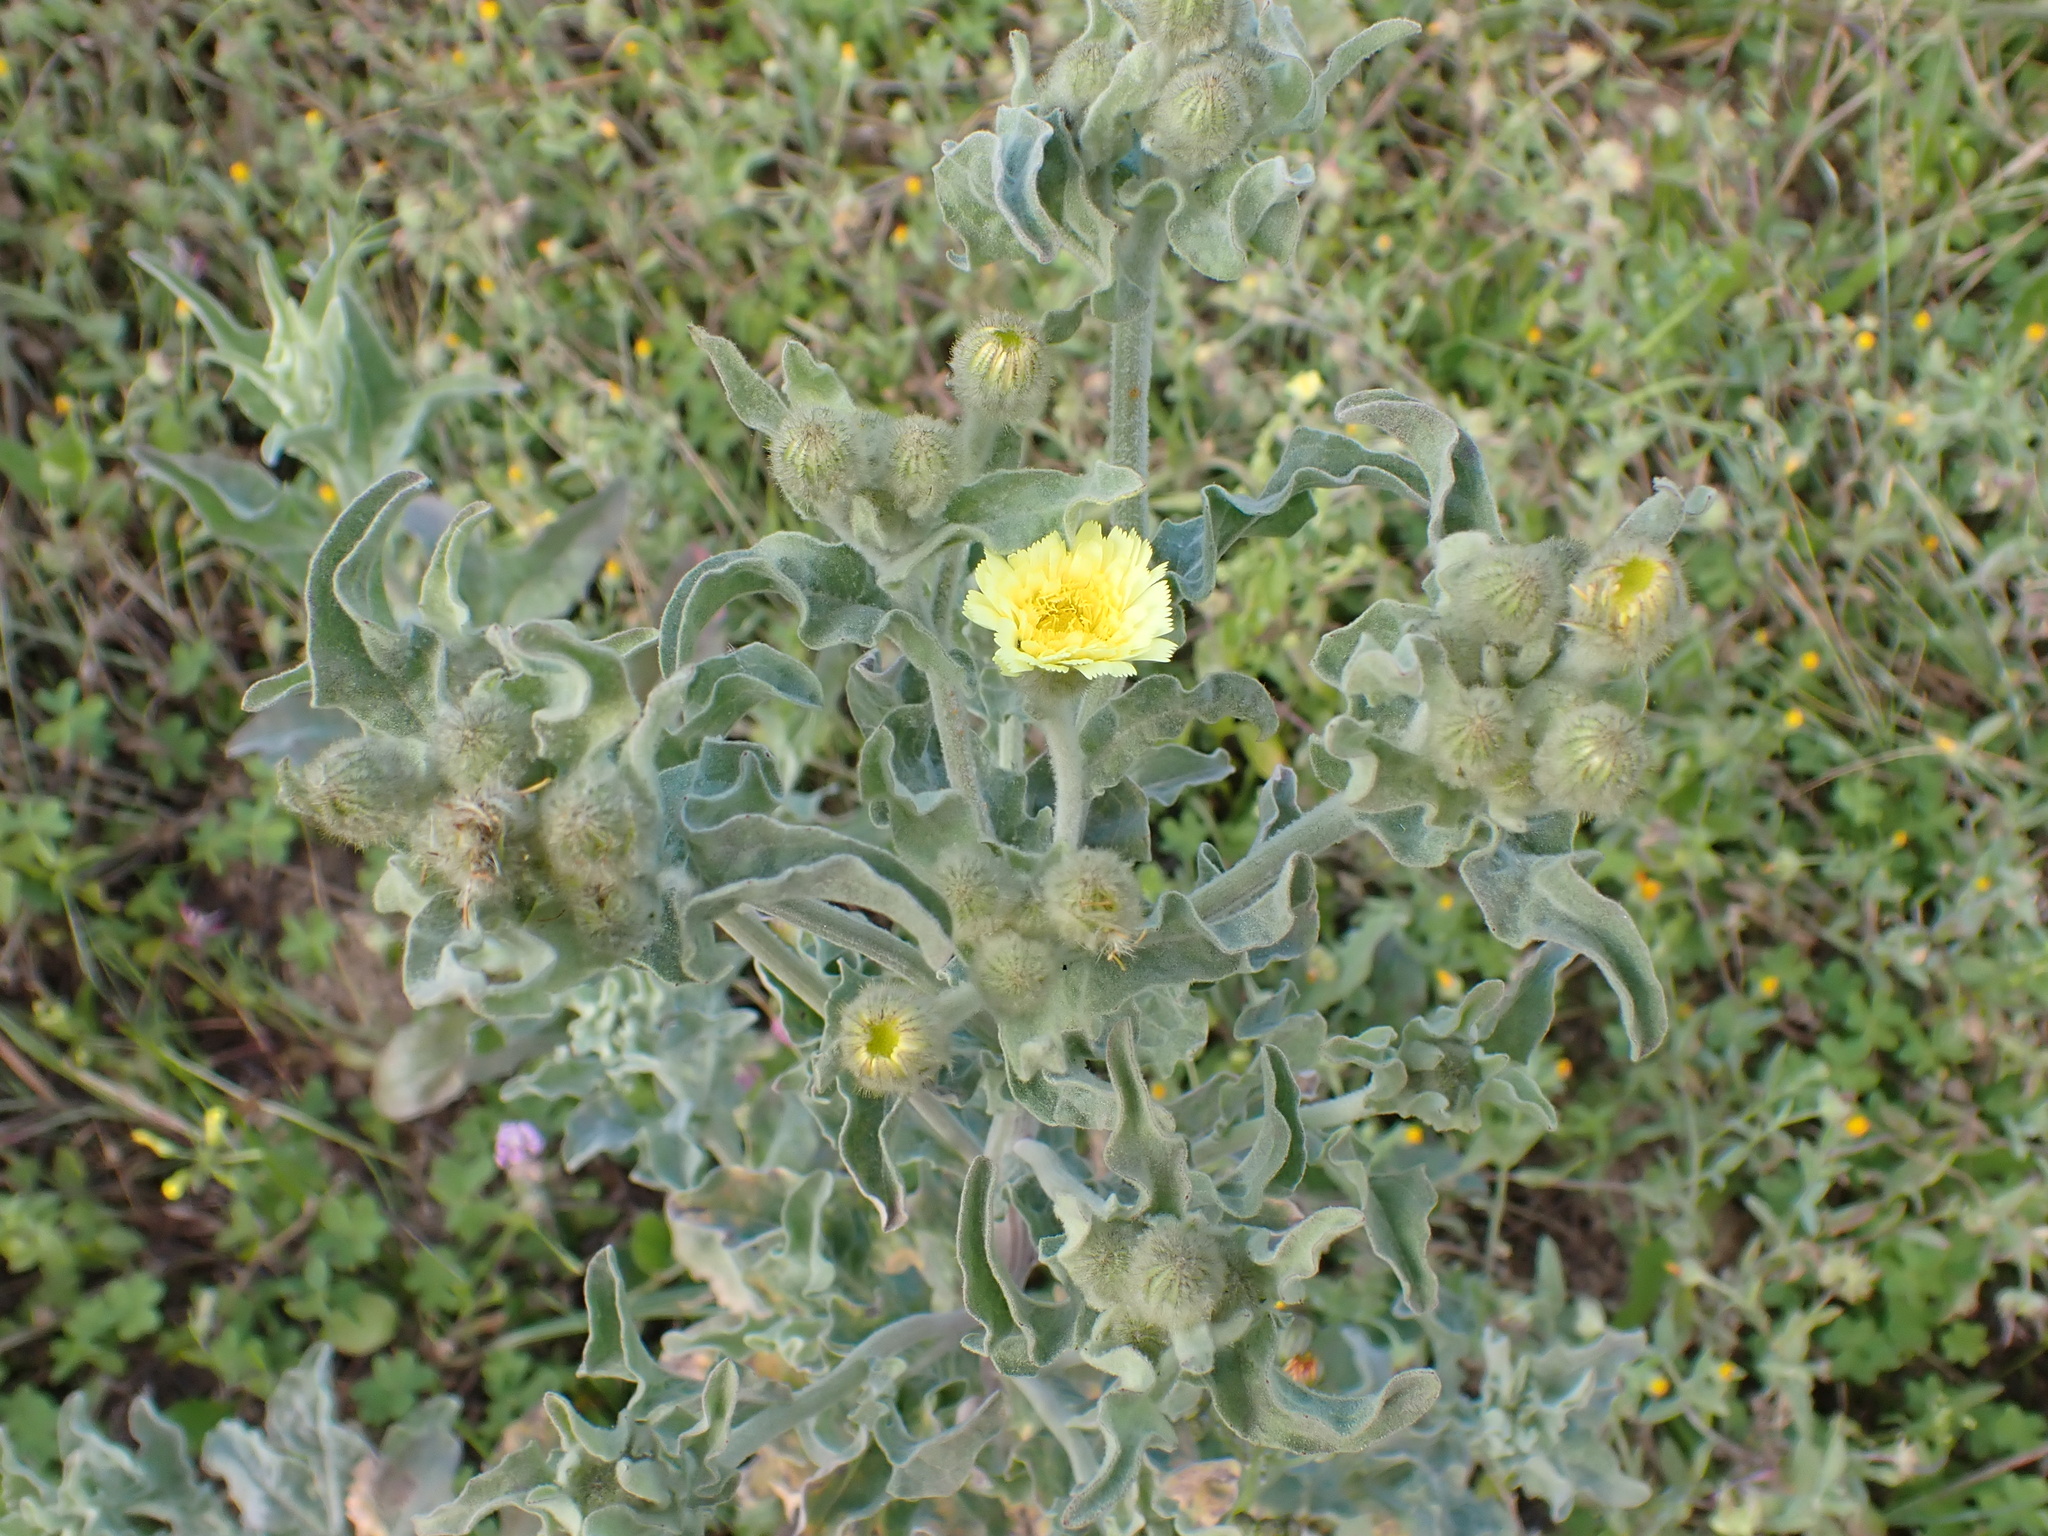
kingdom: Plantae
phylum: Tracheophyta
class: Magnoliopsida
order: Asterales
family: Asteraceae
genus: Andryala
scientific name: Andryala integrifolia
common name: Common andryala
